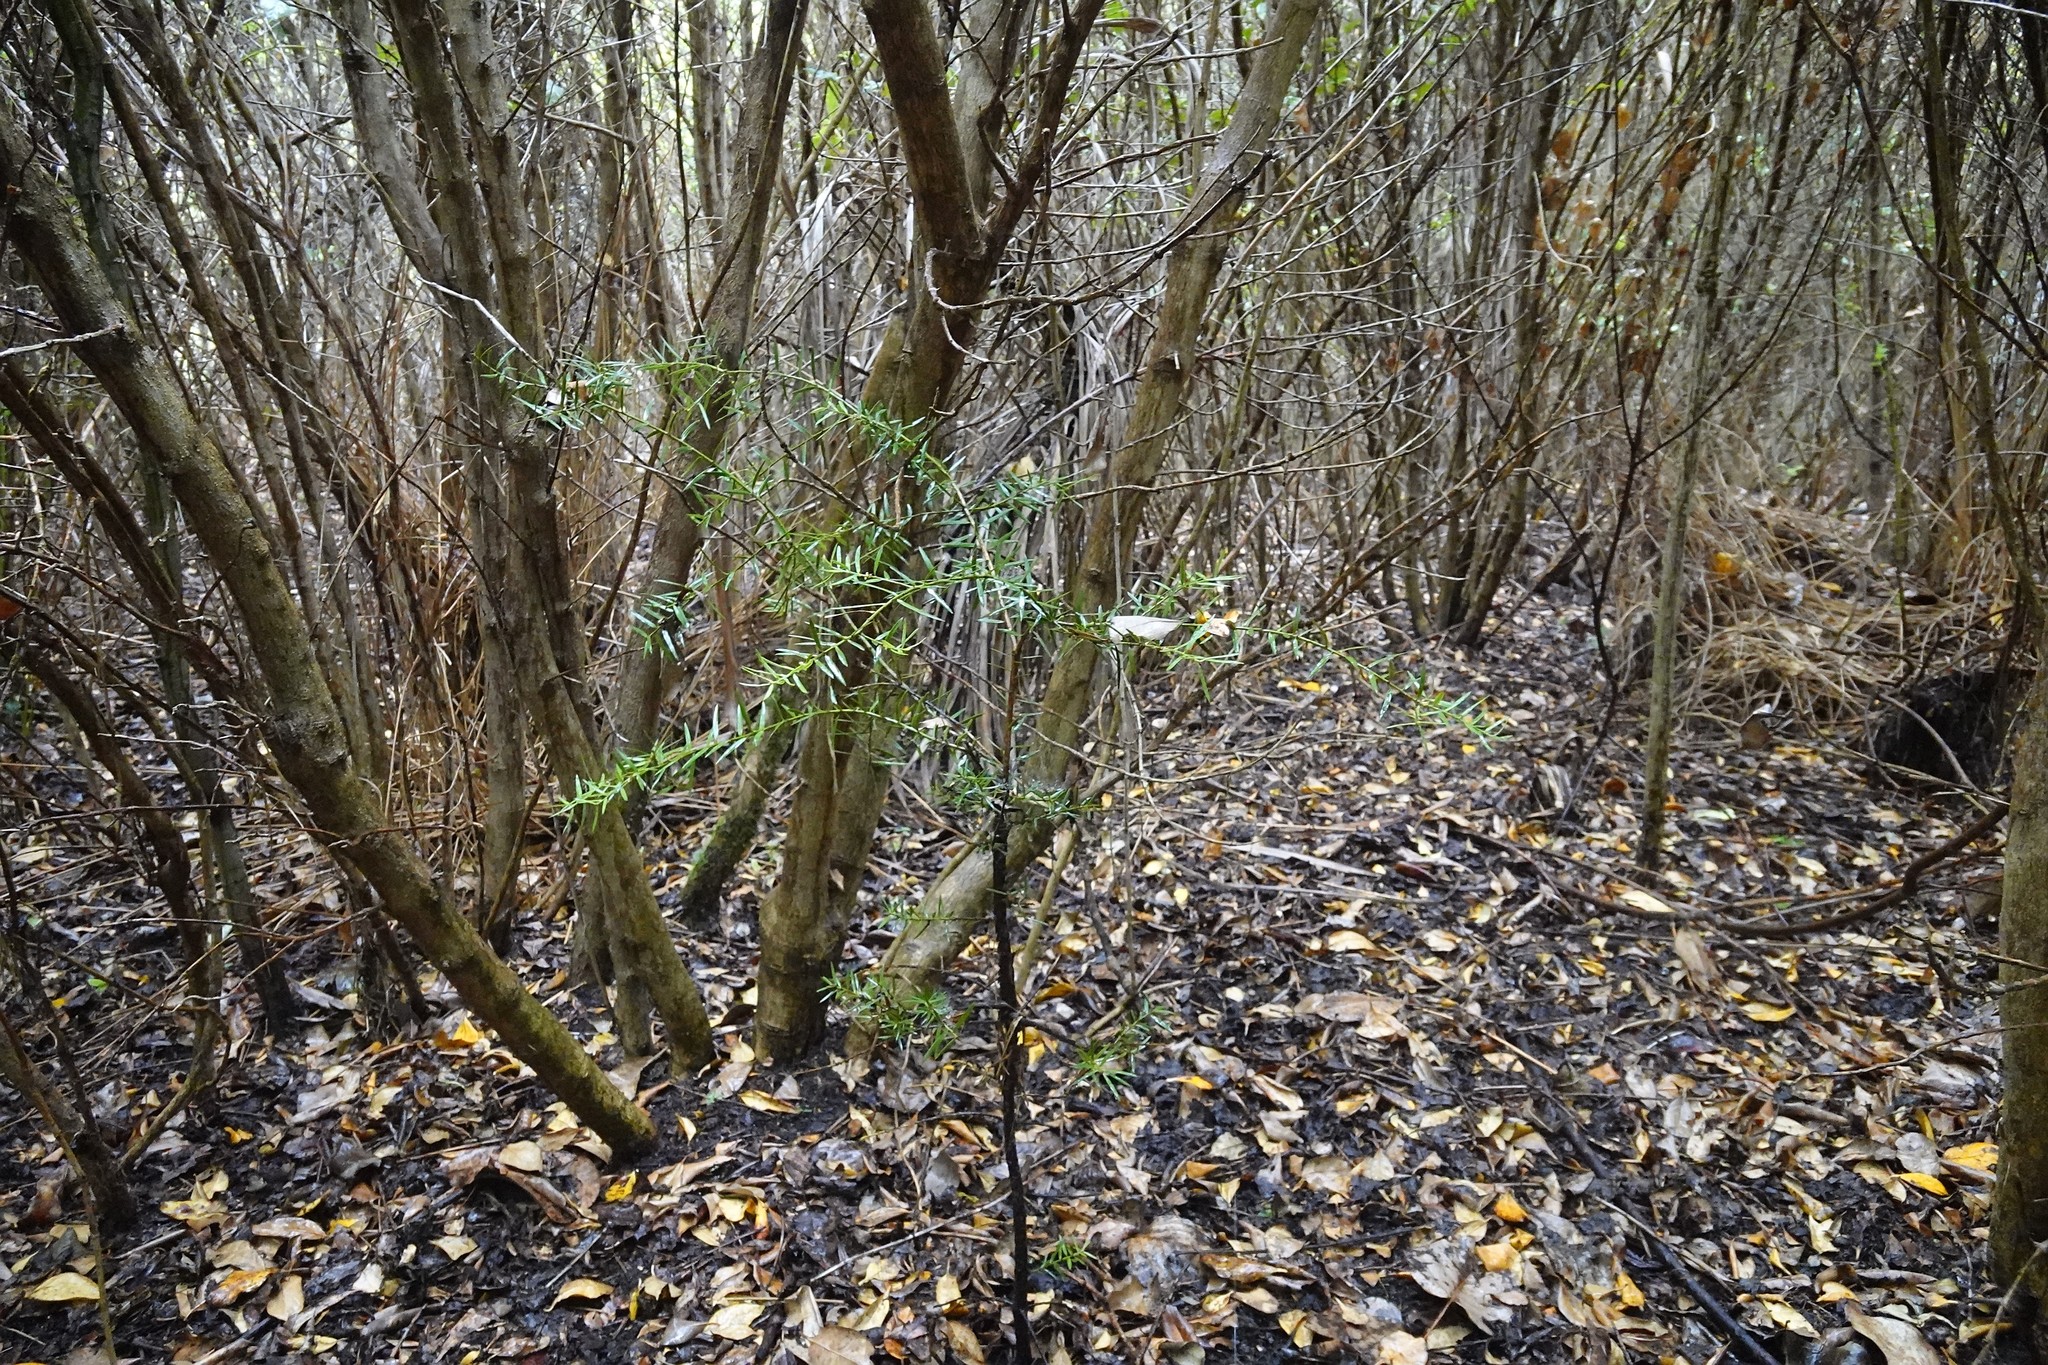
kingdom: Plantae
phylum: Tracheophyta
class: Pinopsida
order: Pinales
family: Podocarpaceae
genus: Podocarpus
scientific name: Podocarpus totara
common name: Totara
